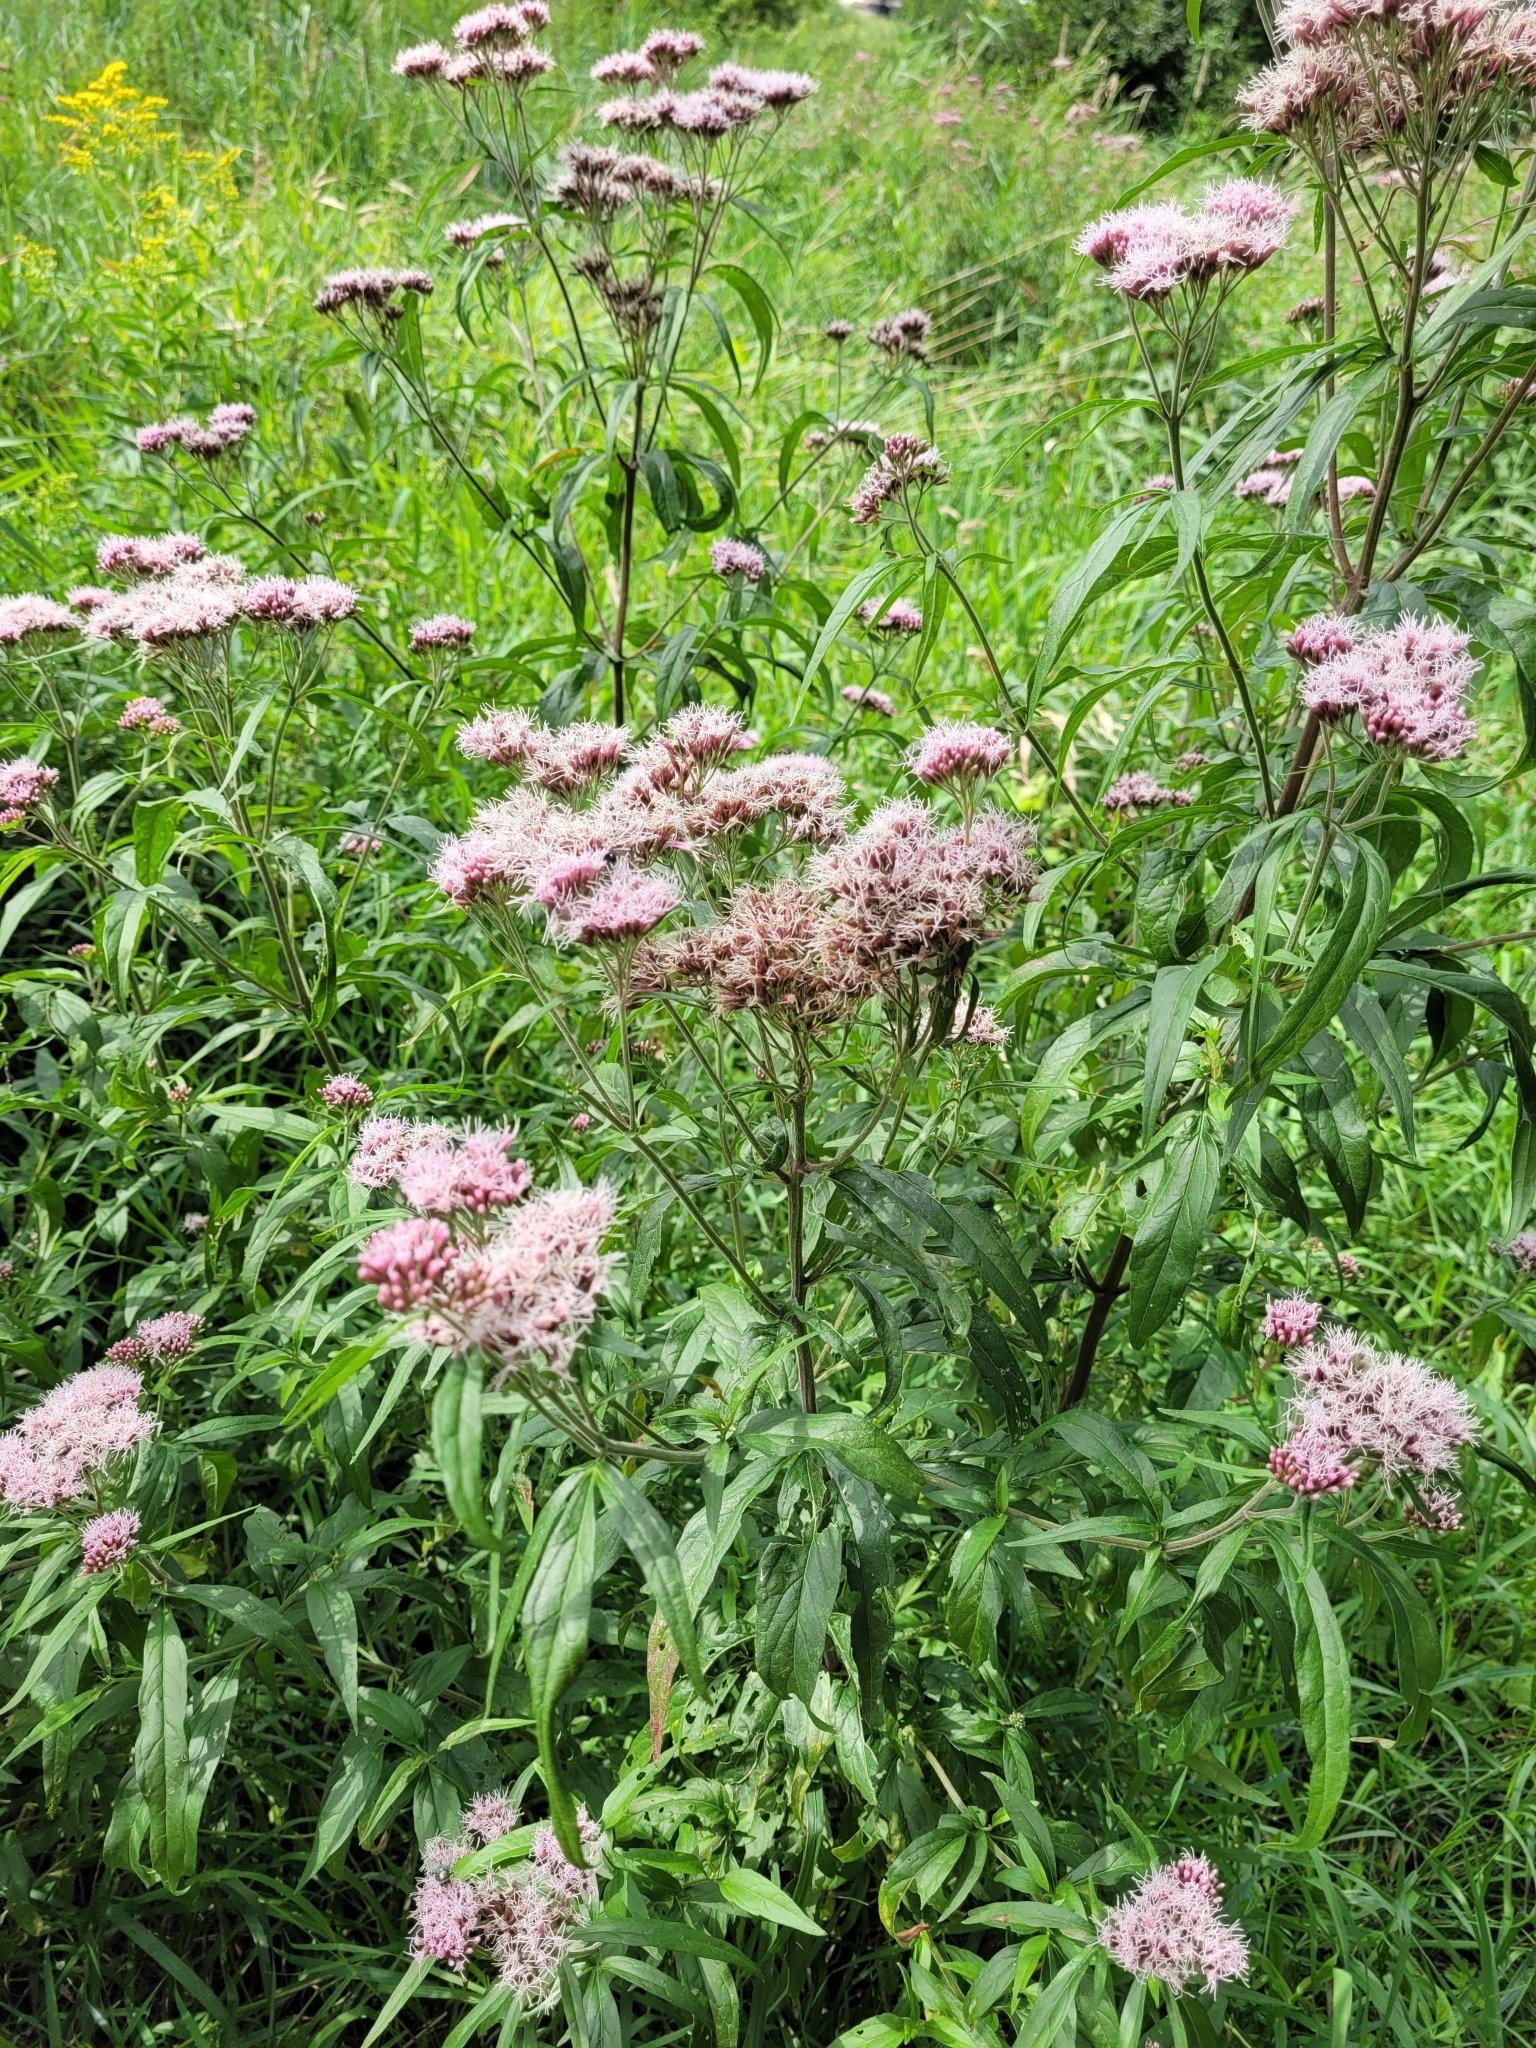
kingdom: Plantae
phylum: Tracheophyta
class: Magnoliopsida
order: Asterales
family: Asteraceae
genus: Eupatorium
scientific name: Eupatorium cannabinum
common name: Hemp-agrimony
